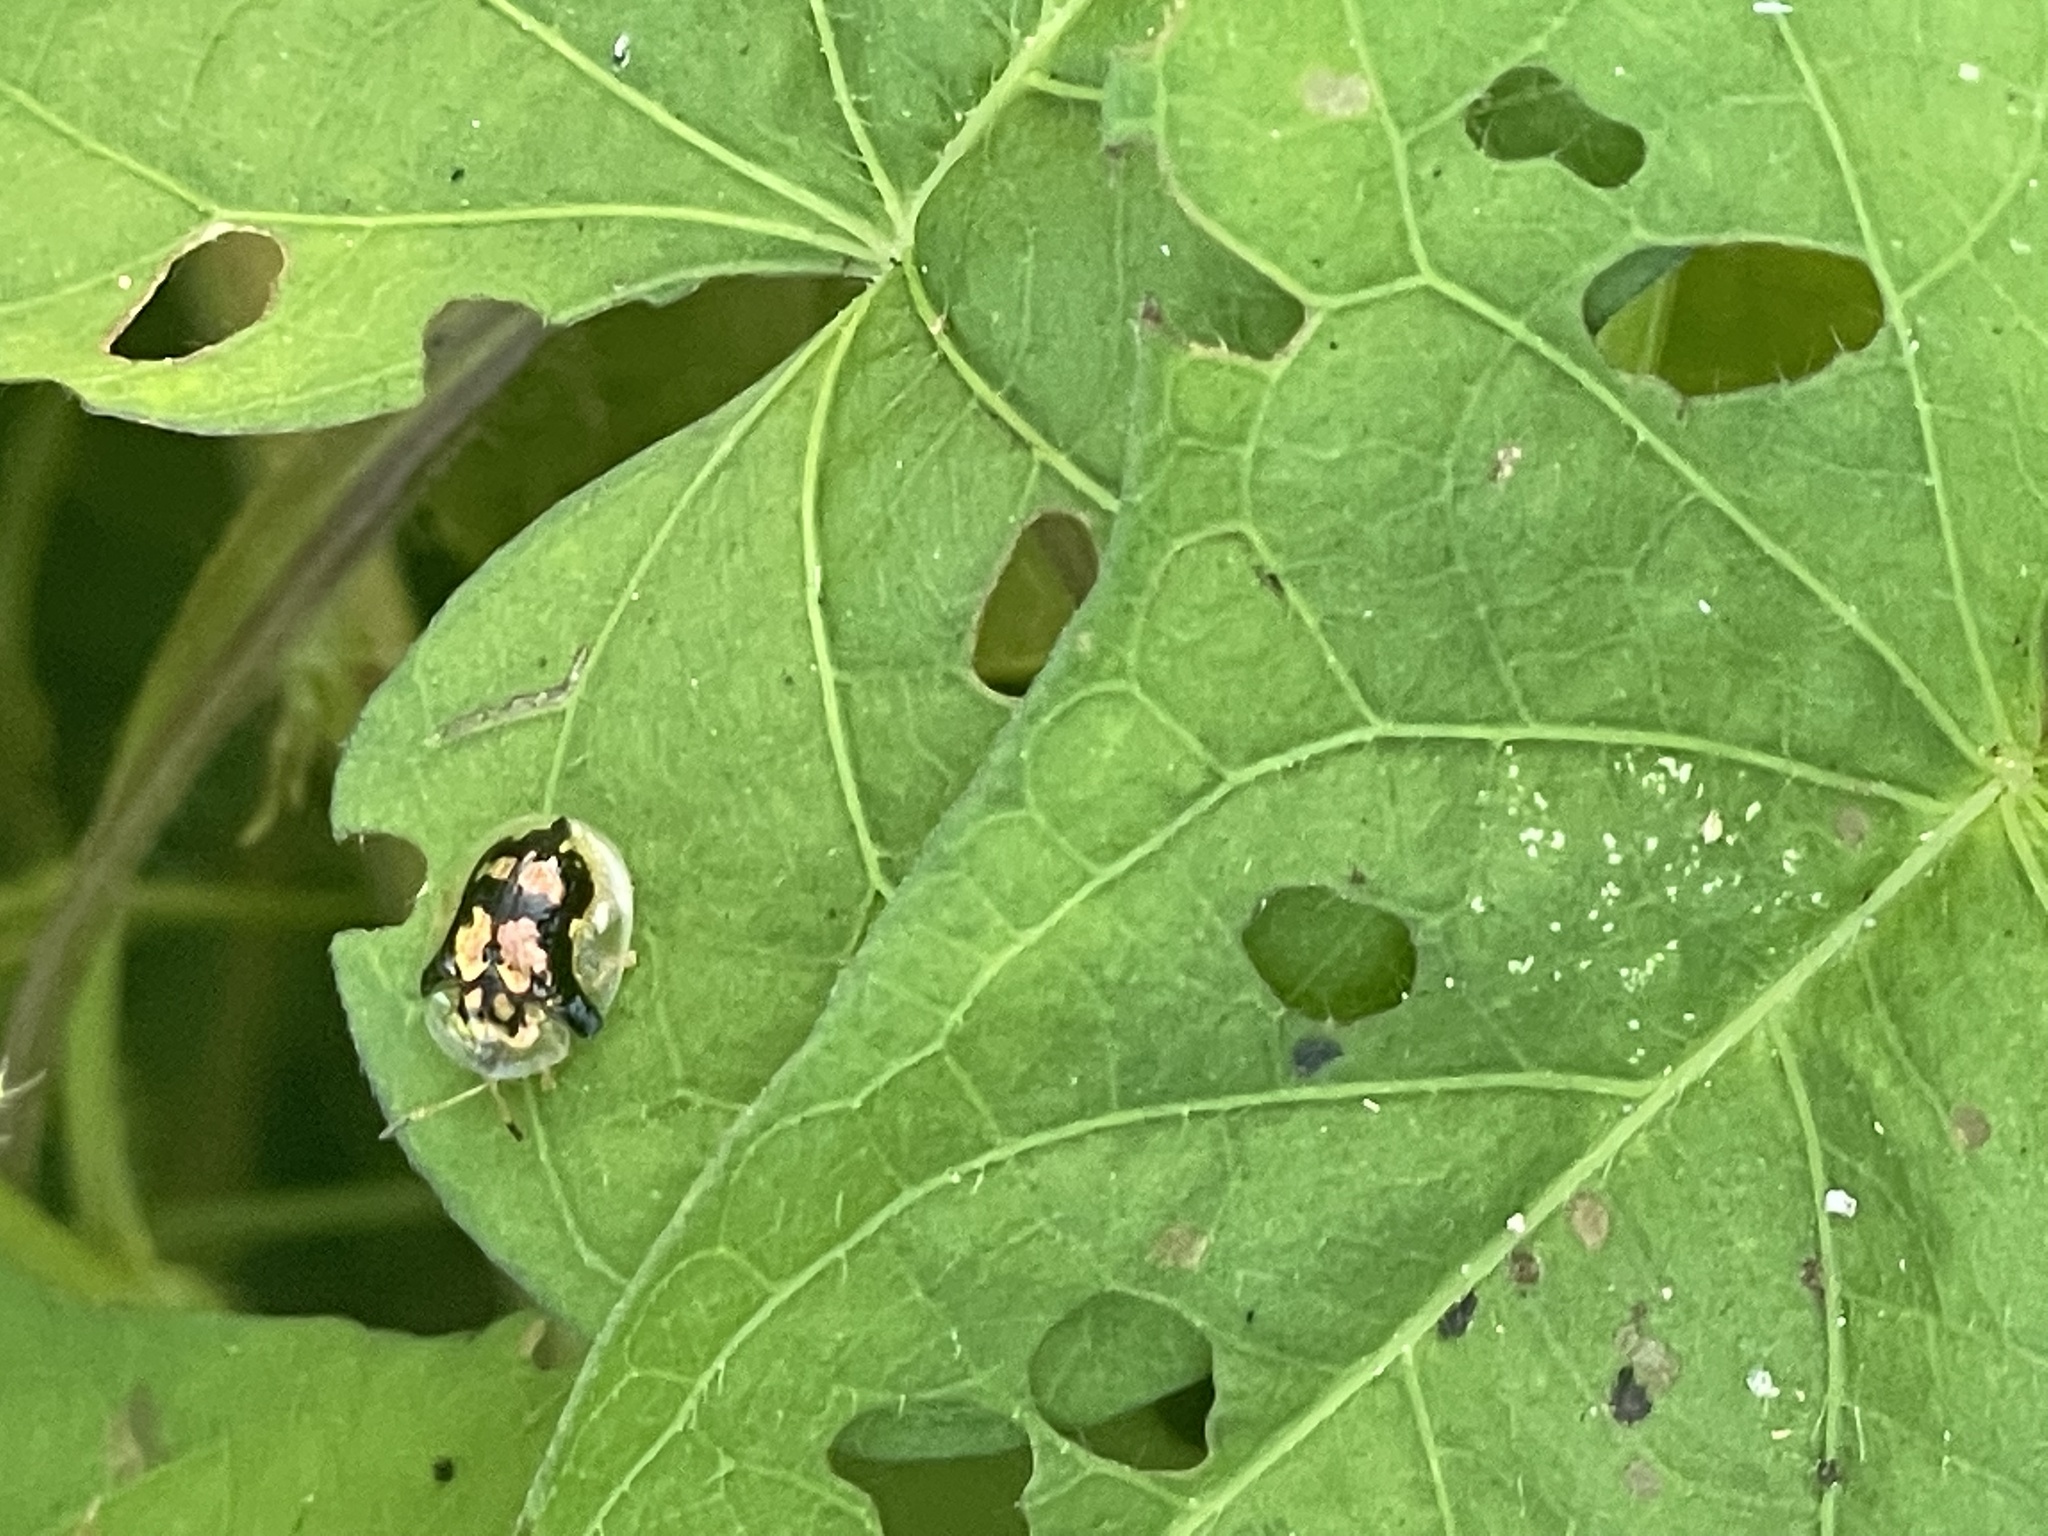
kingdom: Animalia
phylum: Arthropoda
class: Insecta
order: Coleoptera
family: Chrysomelidae
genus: Deloyala
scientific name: Deloyala guttata
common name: Mottled tortoise beetle
